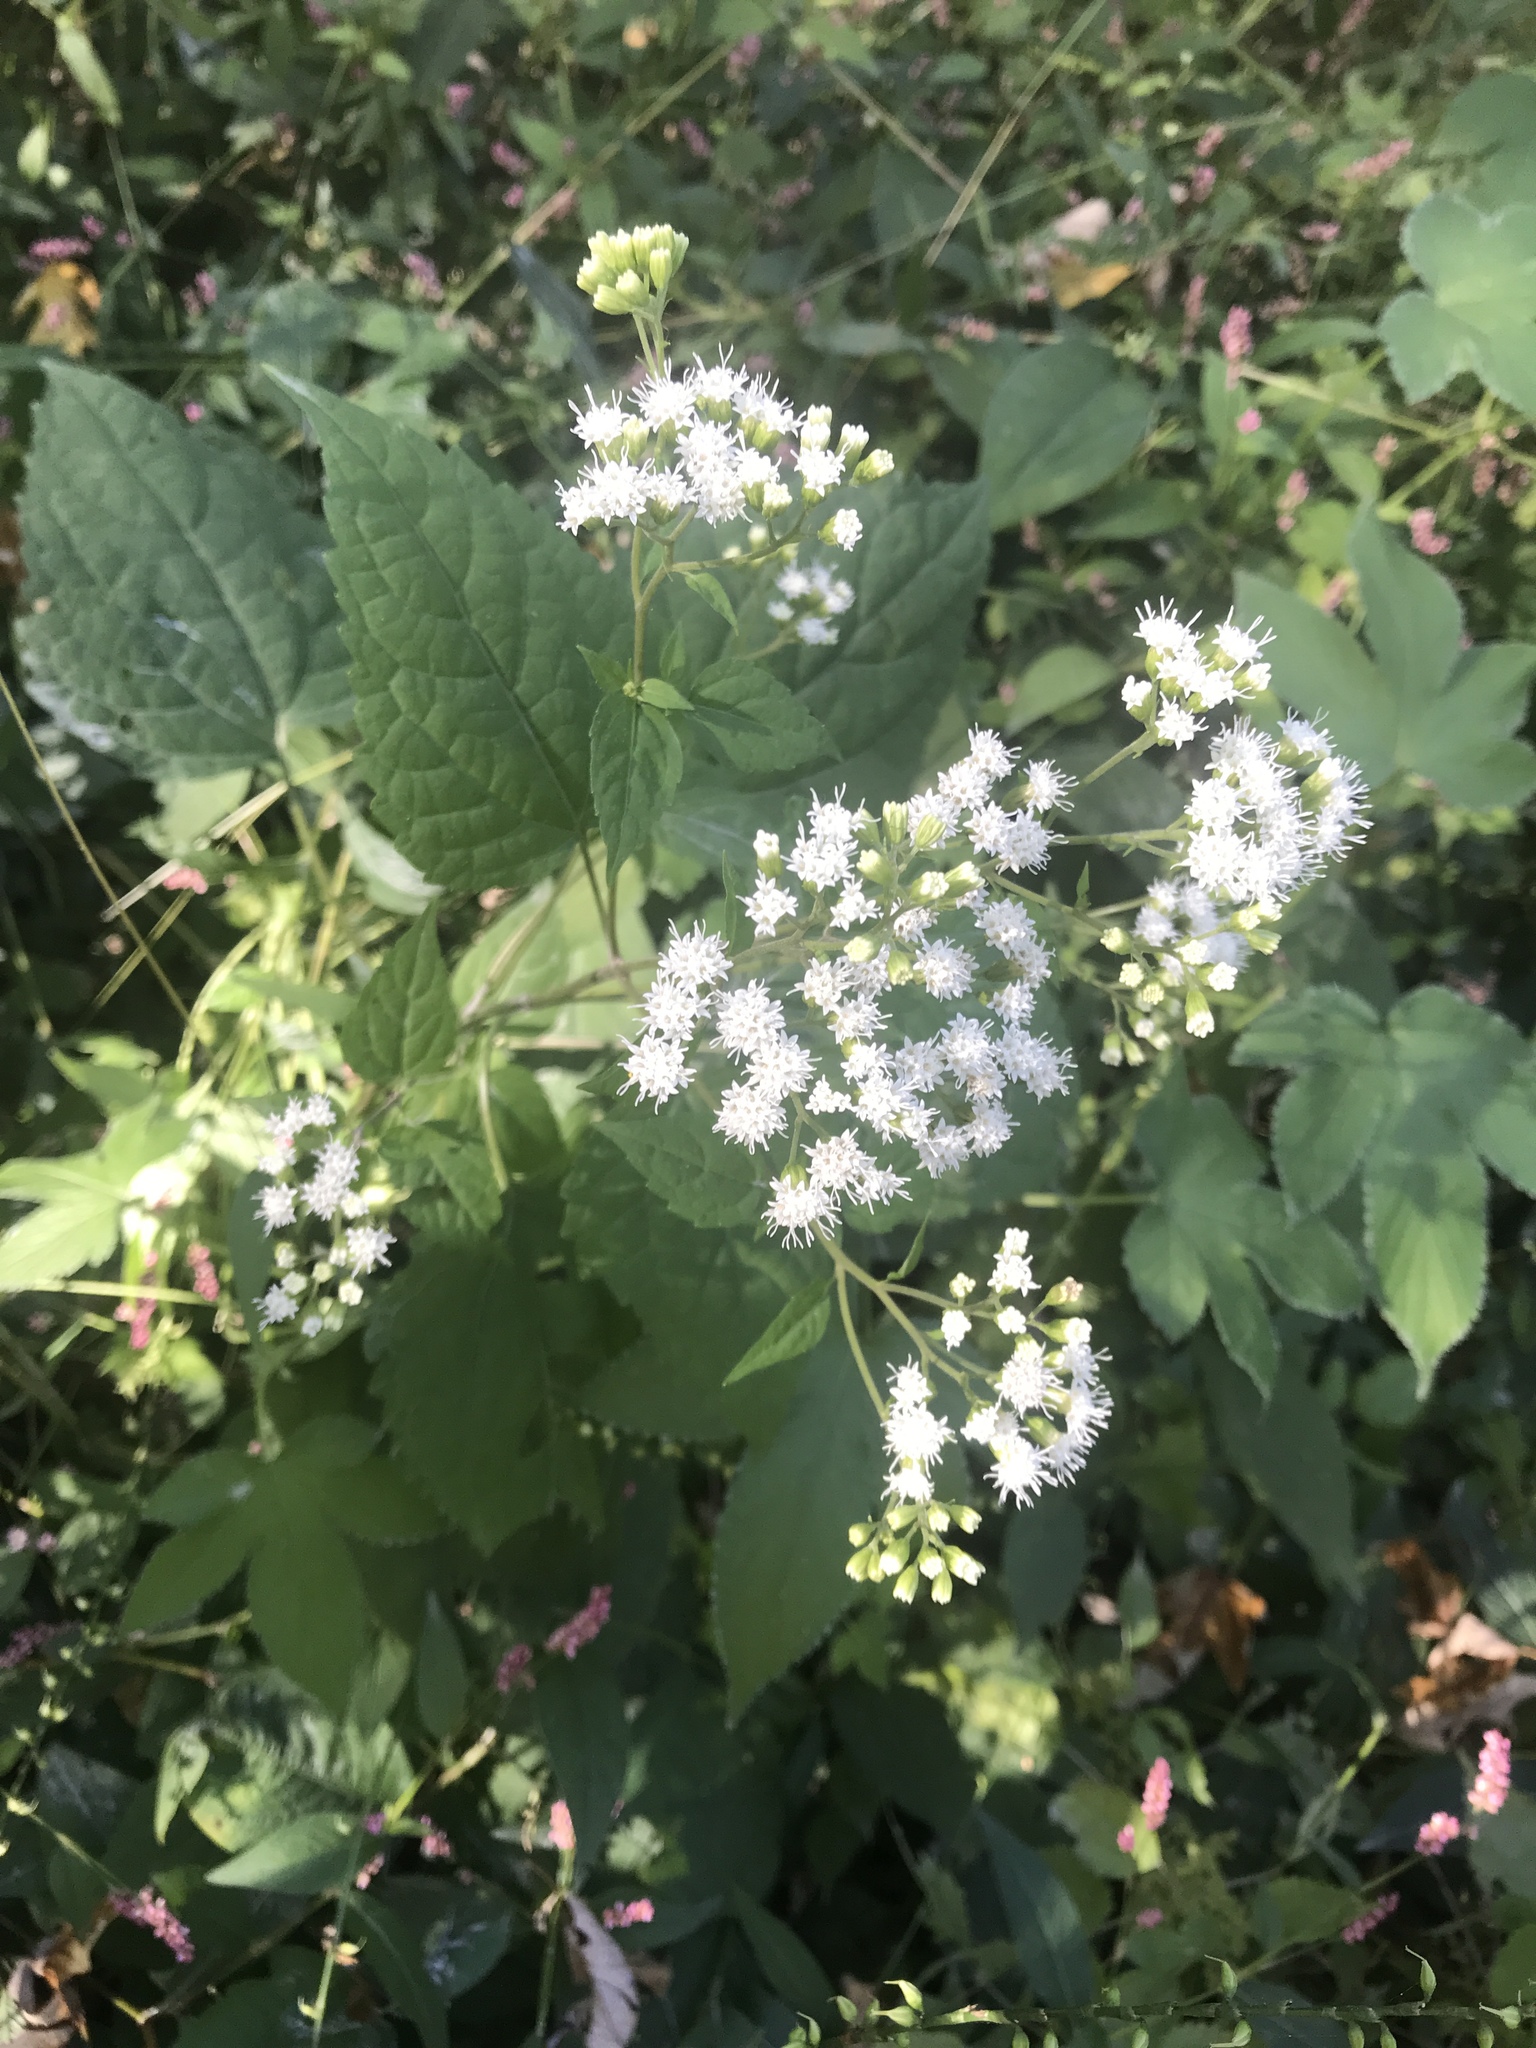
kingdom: Plantae
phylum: Tracheophyta
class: Magnoliopsida
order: Asterales
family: Asteraceae
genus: Ageratina
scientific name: Ageratina altissima
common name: White snakeroot
